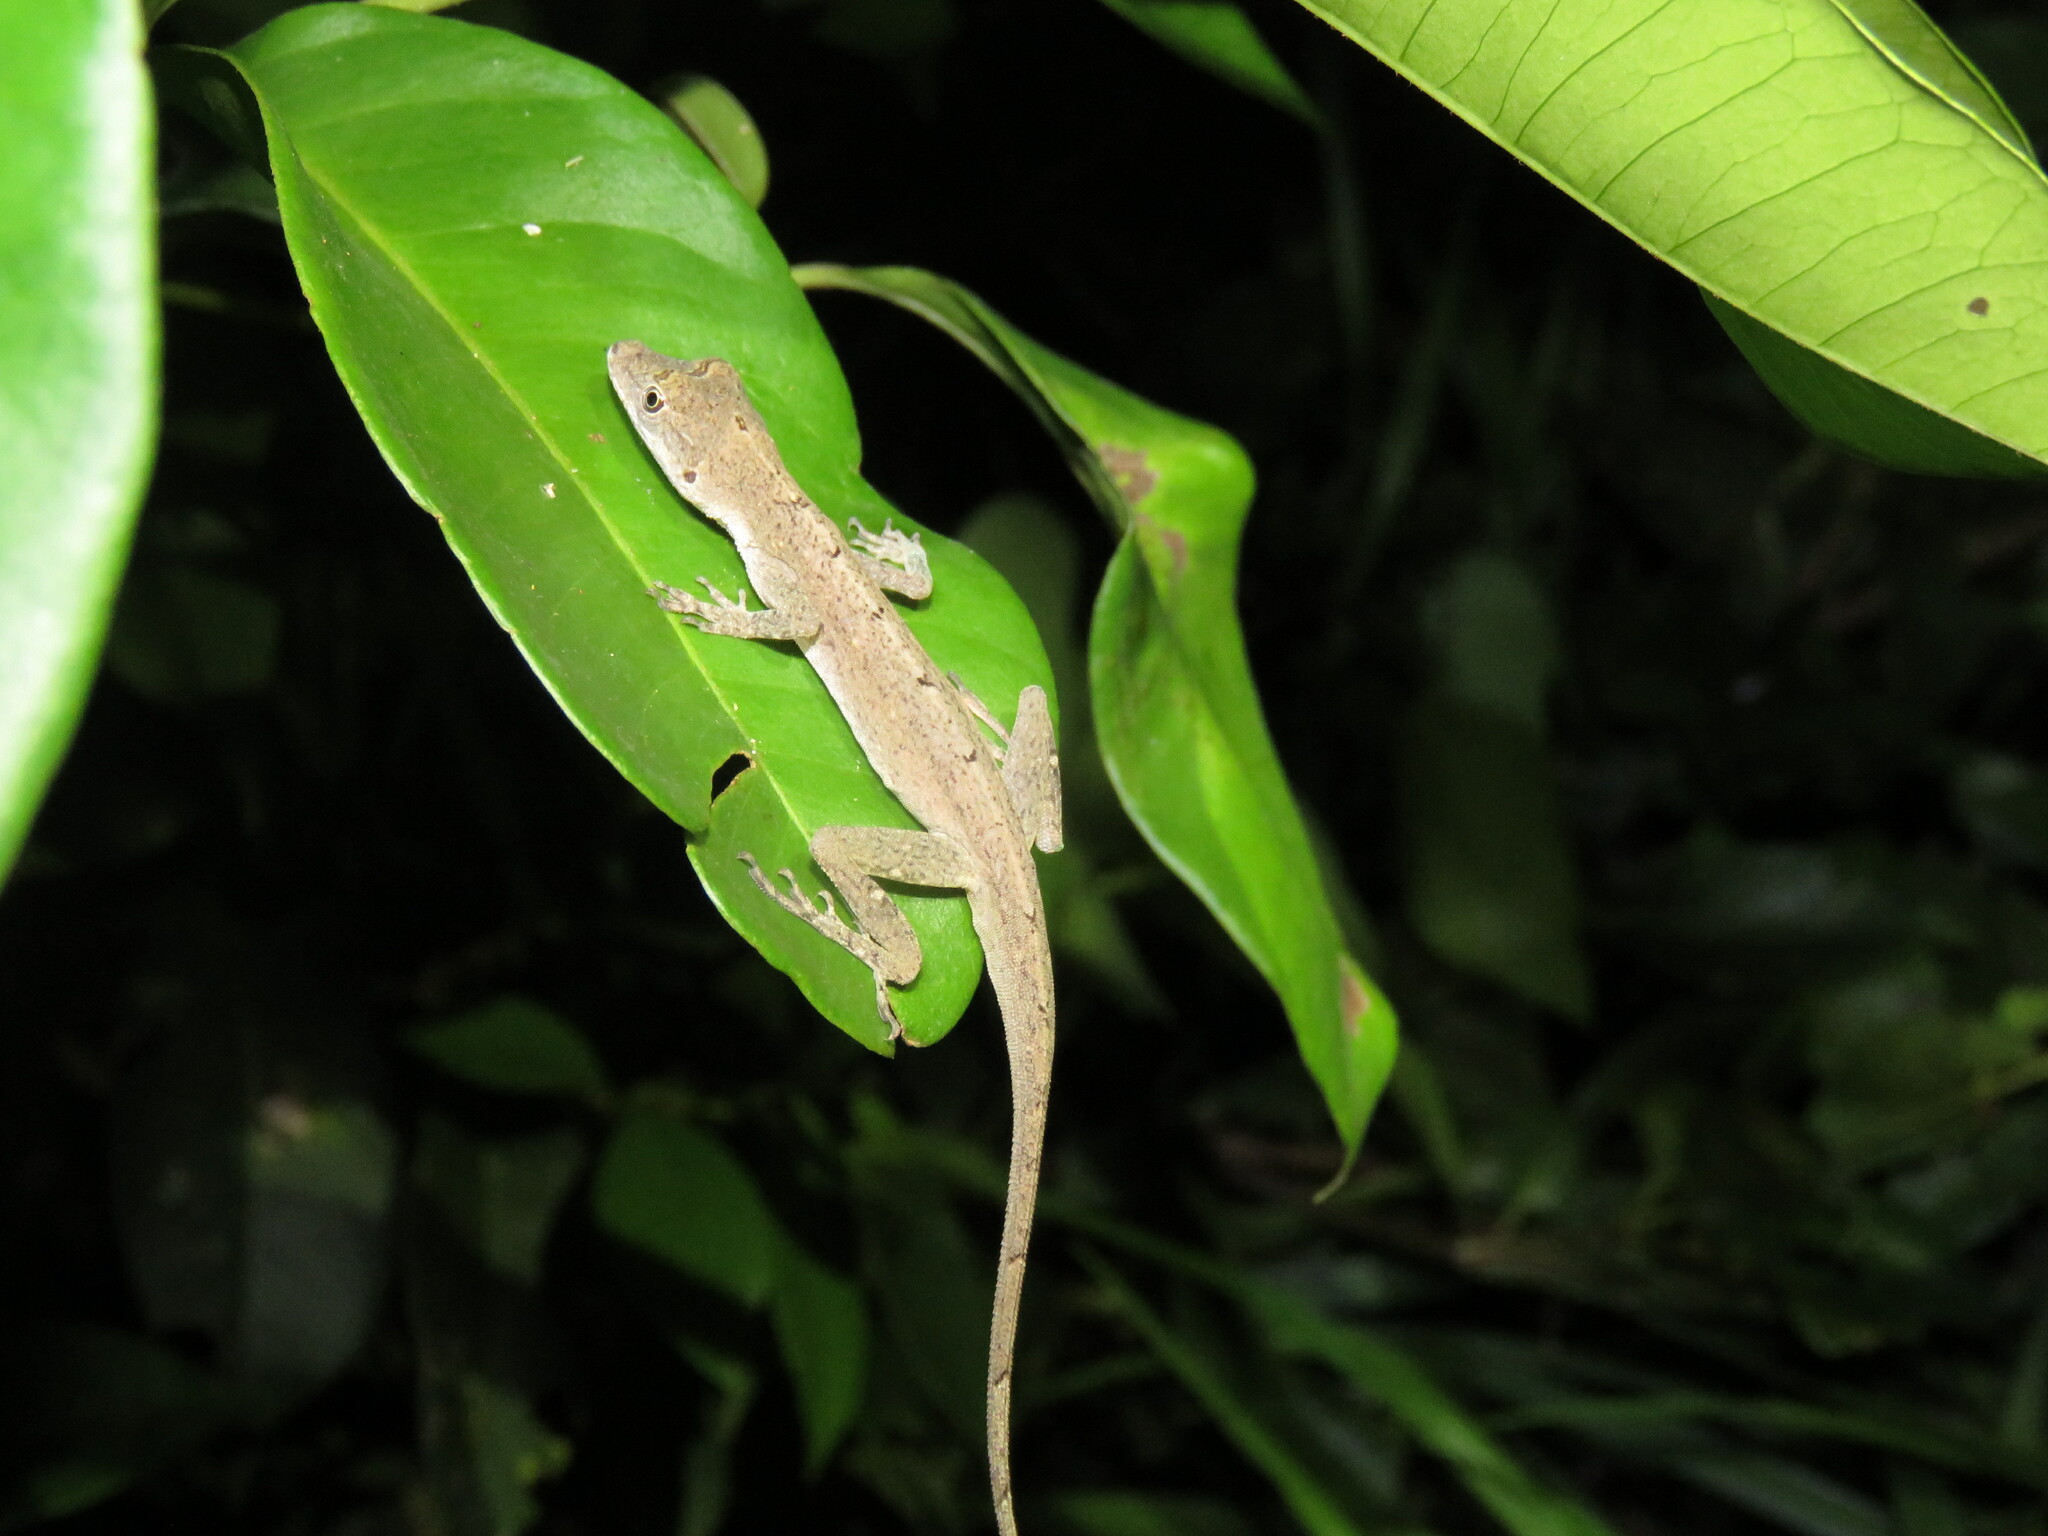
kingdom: Animalia
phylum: Chordata
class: Squamata
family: Dactyloidae
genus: Anolis
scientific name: Anolis fuscoauratus
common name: Brown-eared anole
